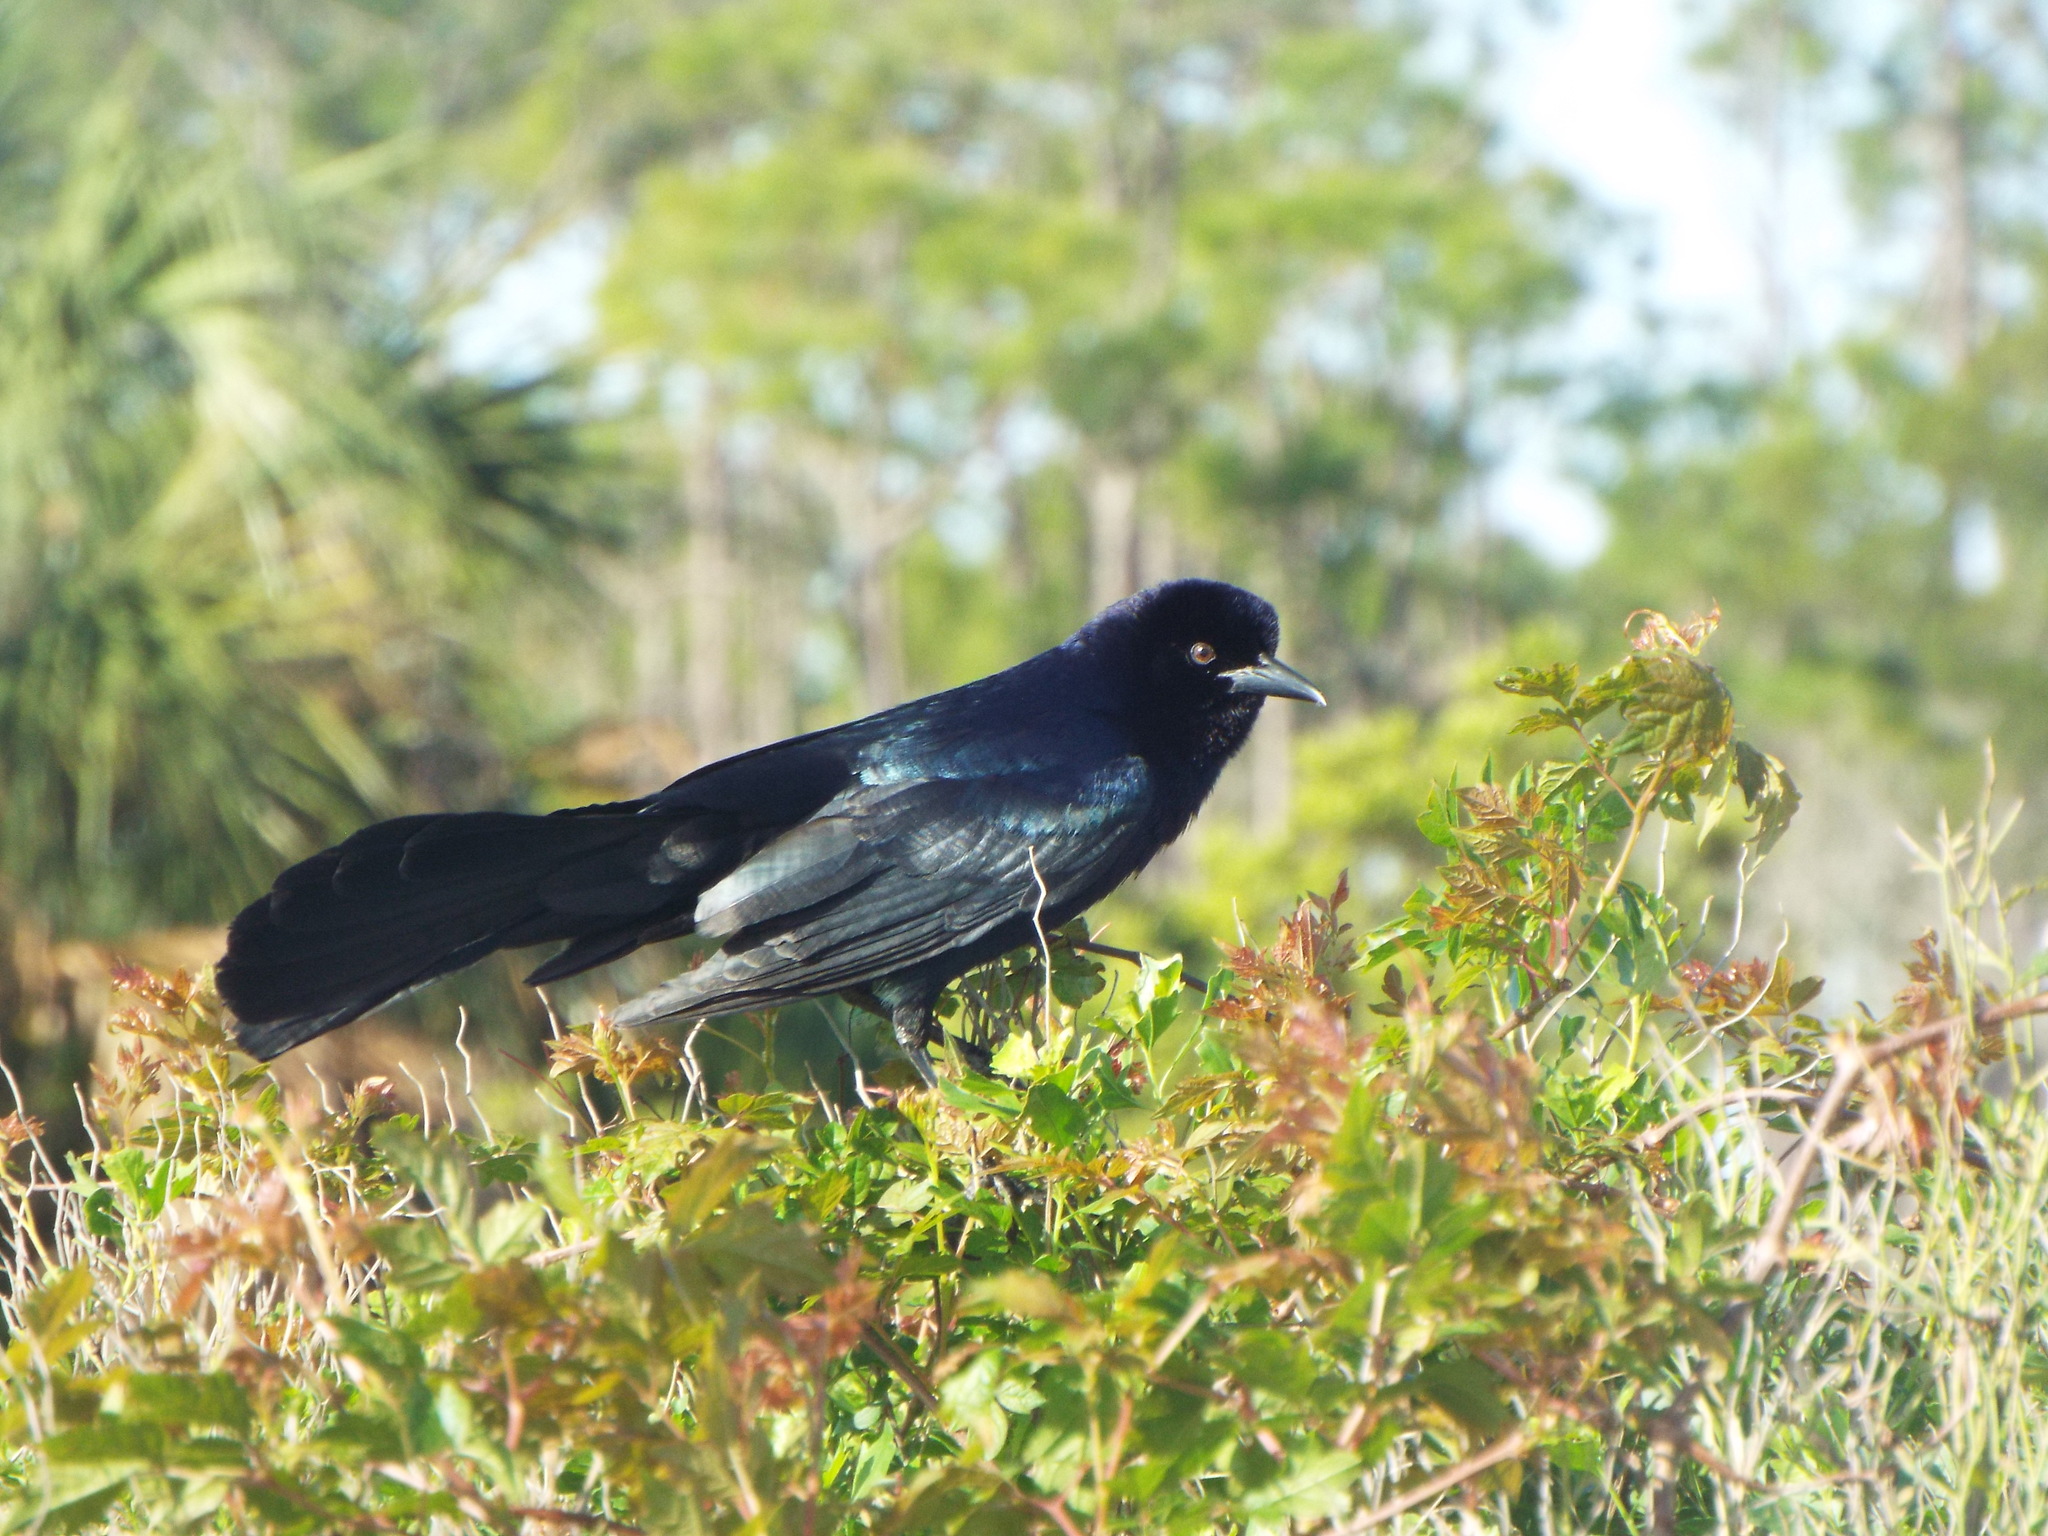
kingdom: Animalia
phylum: Chordata
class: Aves
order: Passeriformes
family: Icteridae
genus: Quiscalus
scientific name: Quiscalus major
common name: Boat-tailed grackle
